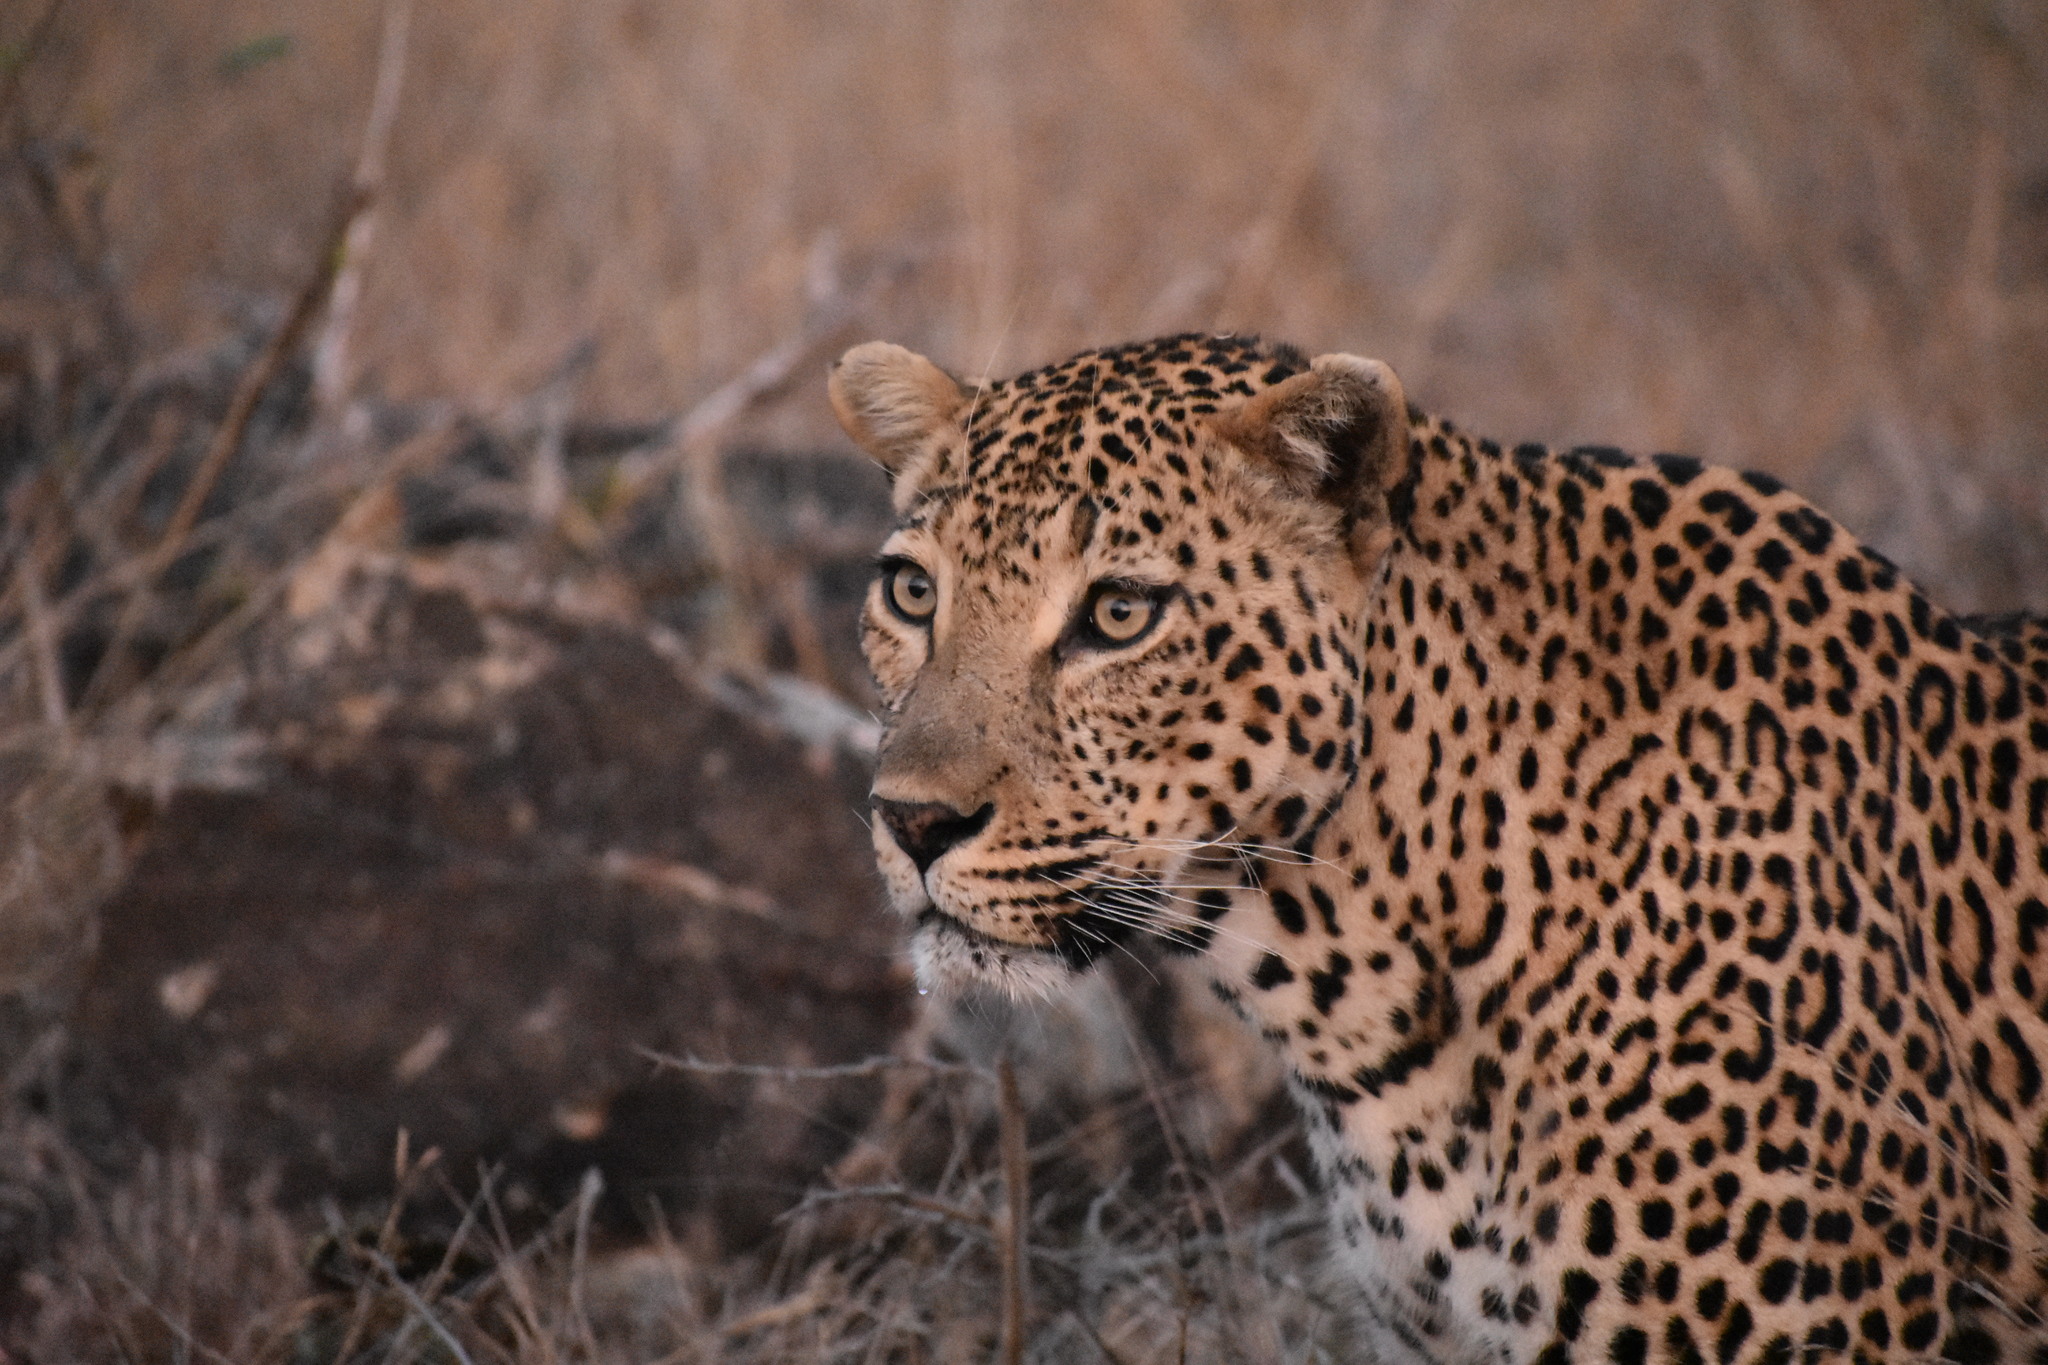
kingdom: Animalia
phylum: Chordata
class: Mammalia
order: Carnivora
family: Felidae
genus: Panthera
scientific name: Panthera pardus
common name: Leopard
